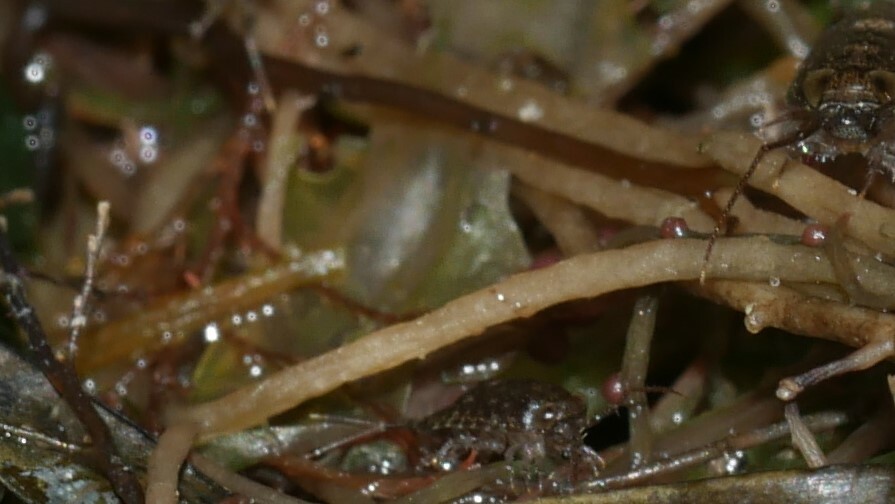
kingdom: Animalia
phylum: Arthropoda
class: Malacostraca
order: Isopoda
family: Ligiidae
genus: Ligia
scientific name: Ligia exotica
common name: Wharf roach
